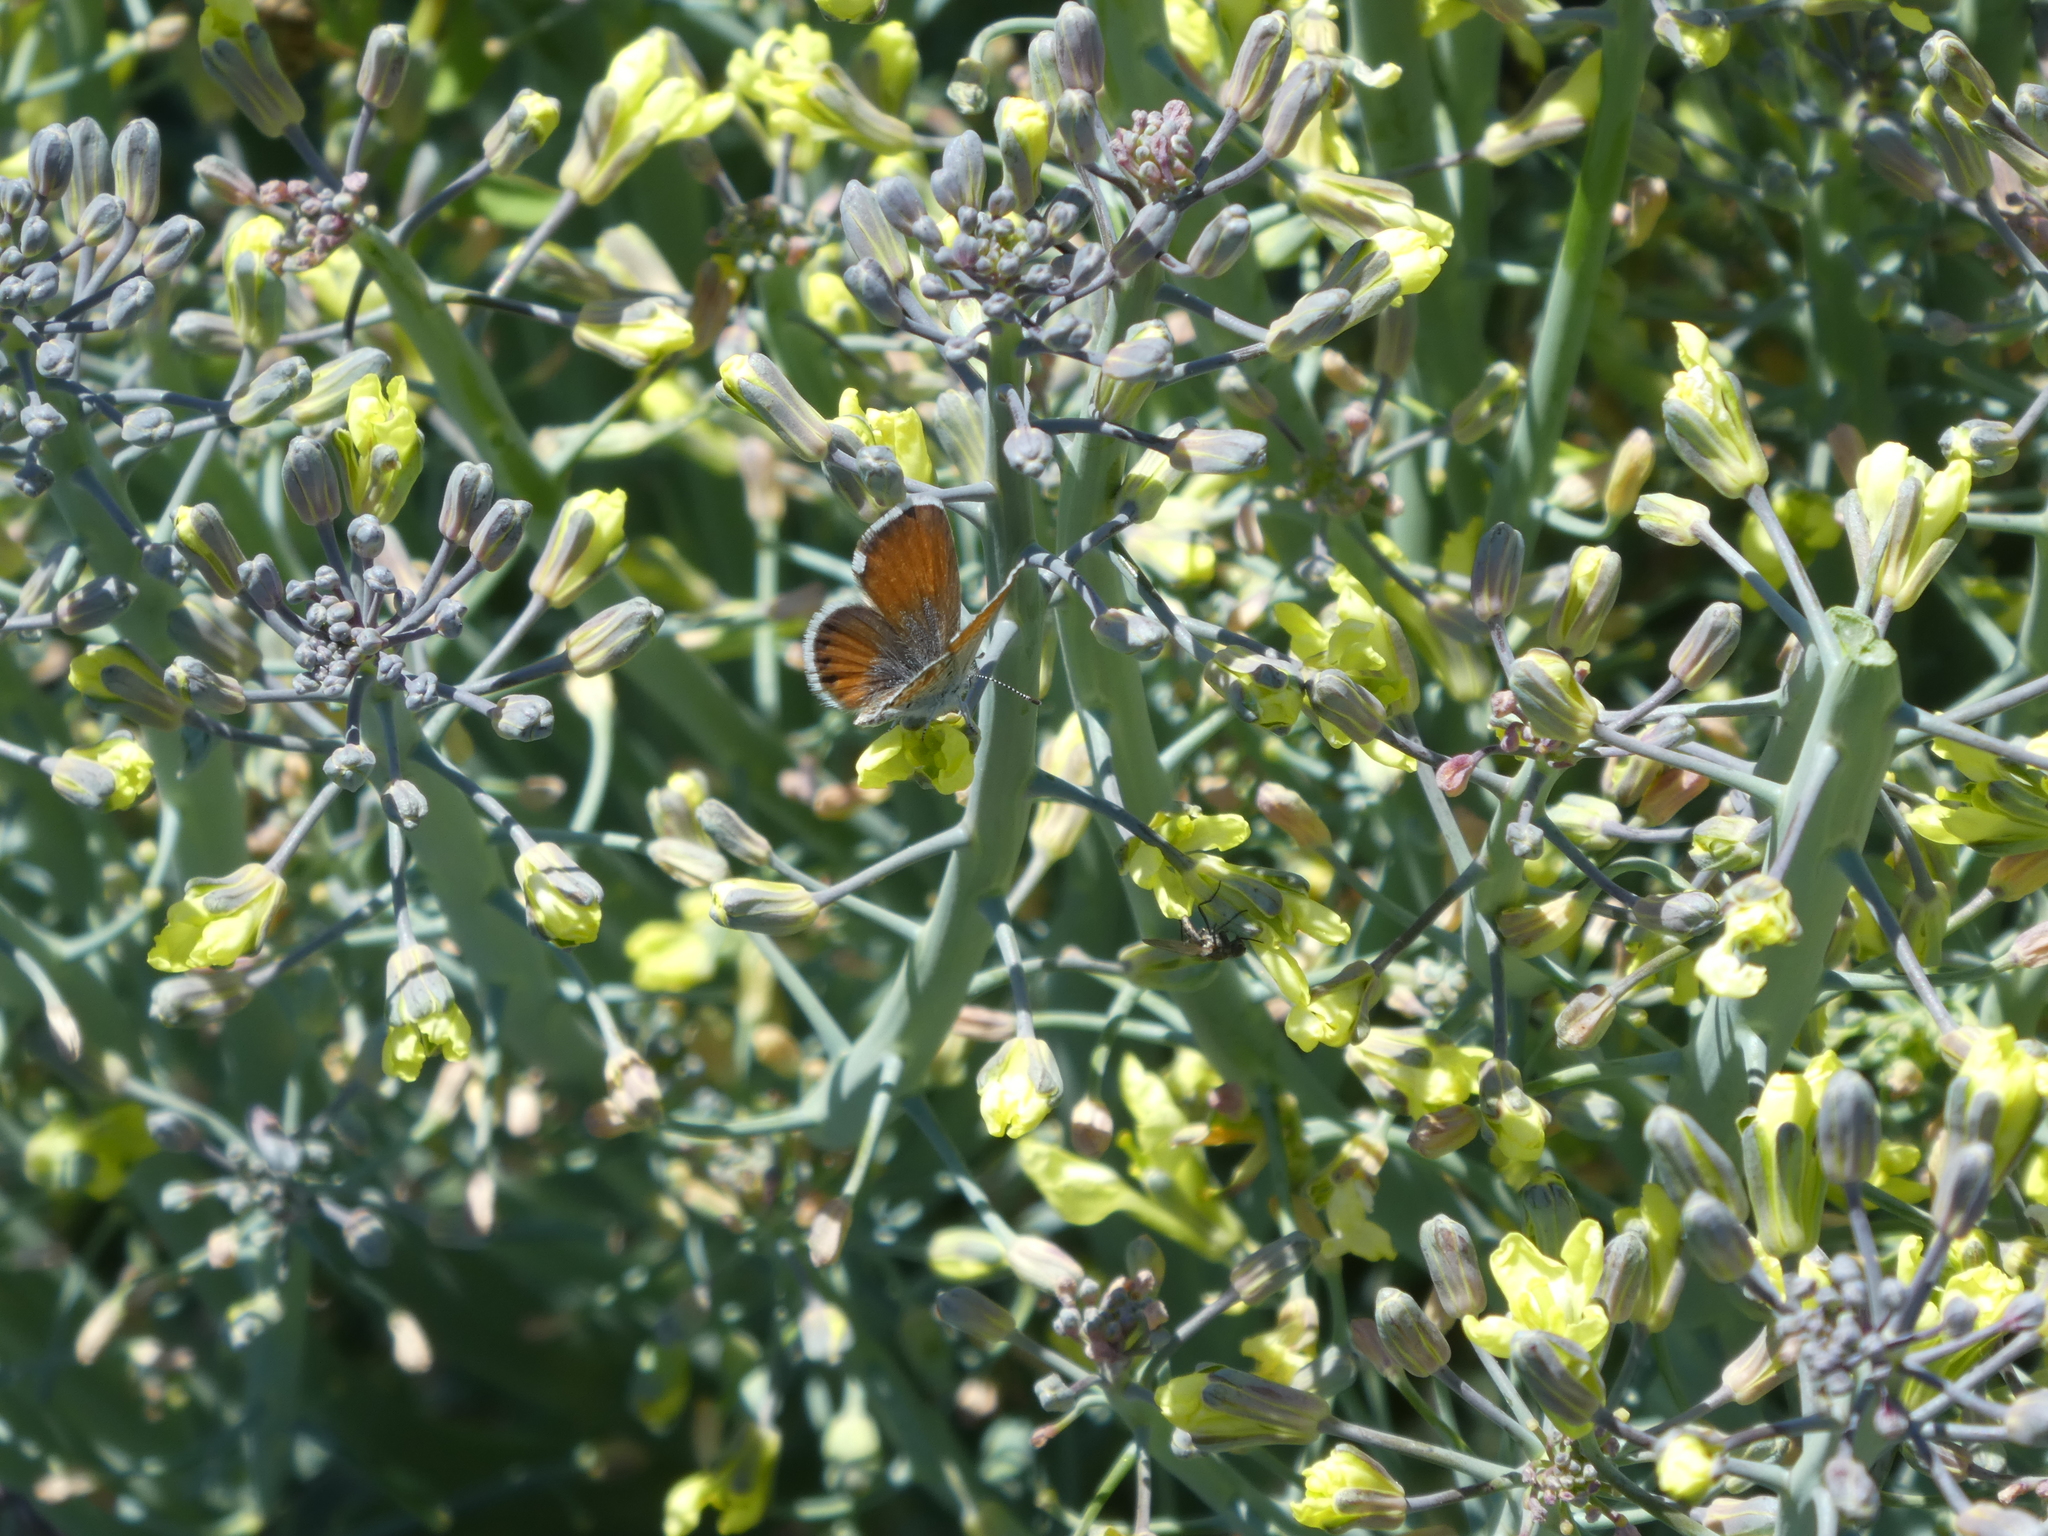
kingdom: Animalia
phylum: Arthropoda
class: Insecta
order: Lepidoptera
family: Lycaenidae
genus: Brephidium
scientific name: Brephidium exilis
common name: Pygmy blue
